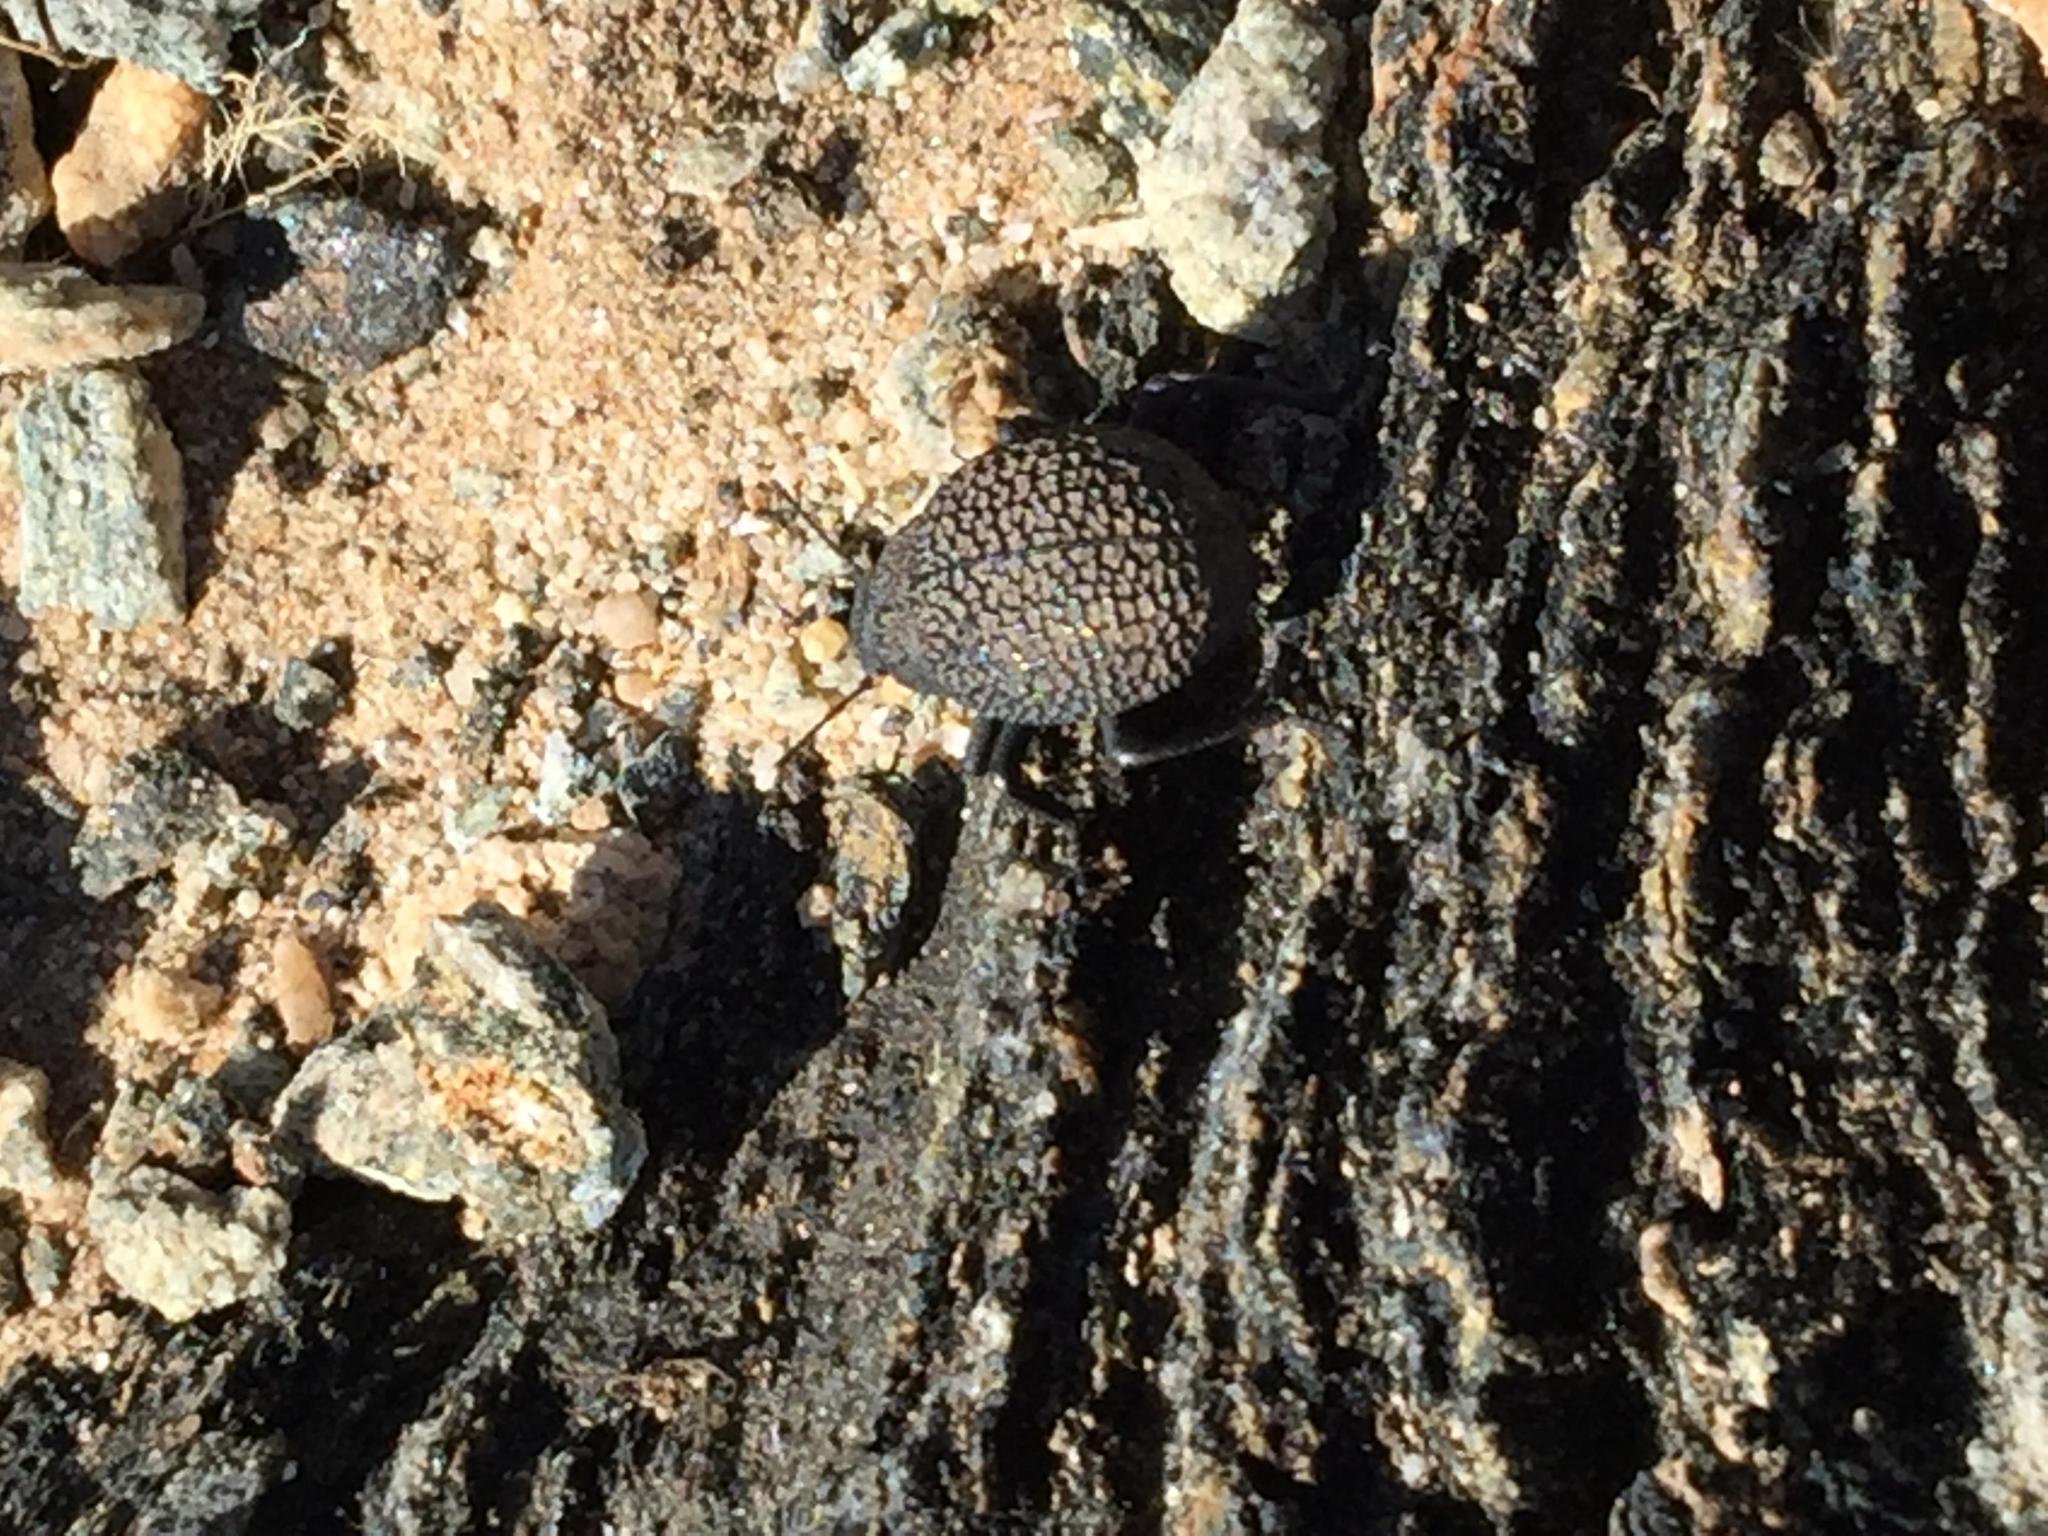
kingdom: Animalia
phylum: Arthropoda
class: Insecta
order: Coleoptera
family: Tenebrionidae
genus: Alogenius
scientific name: Alogenius
